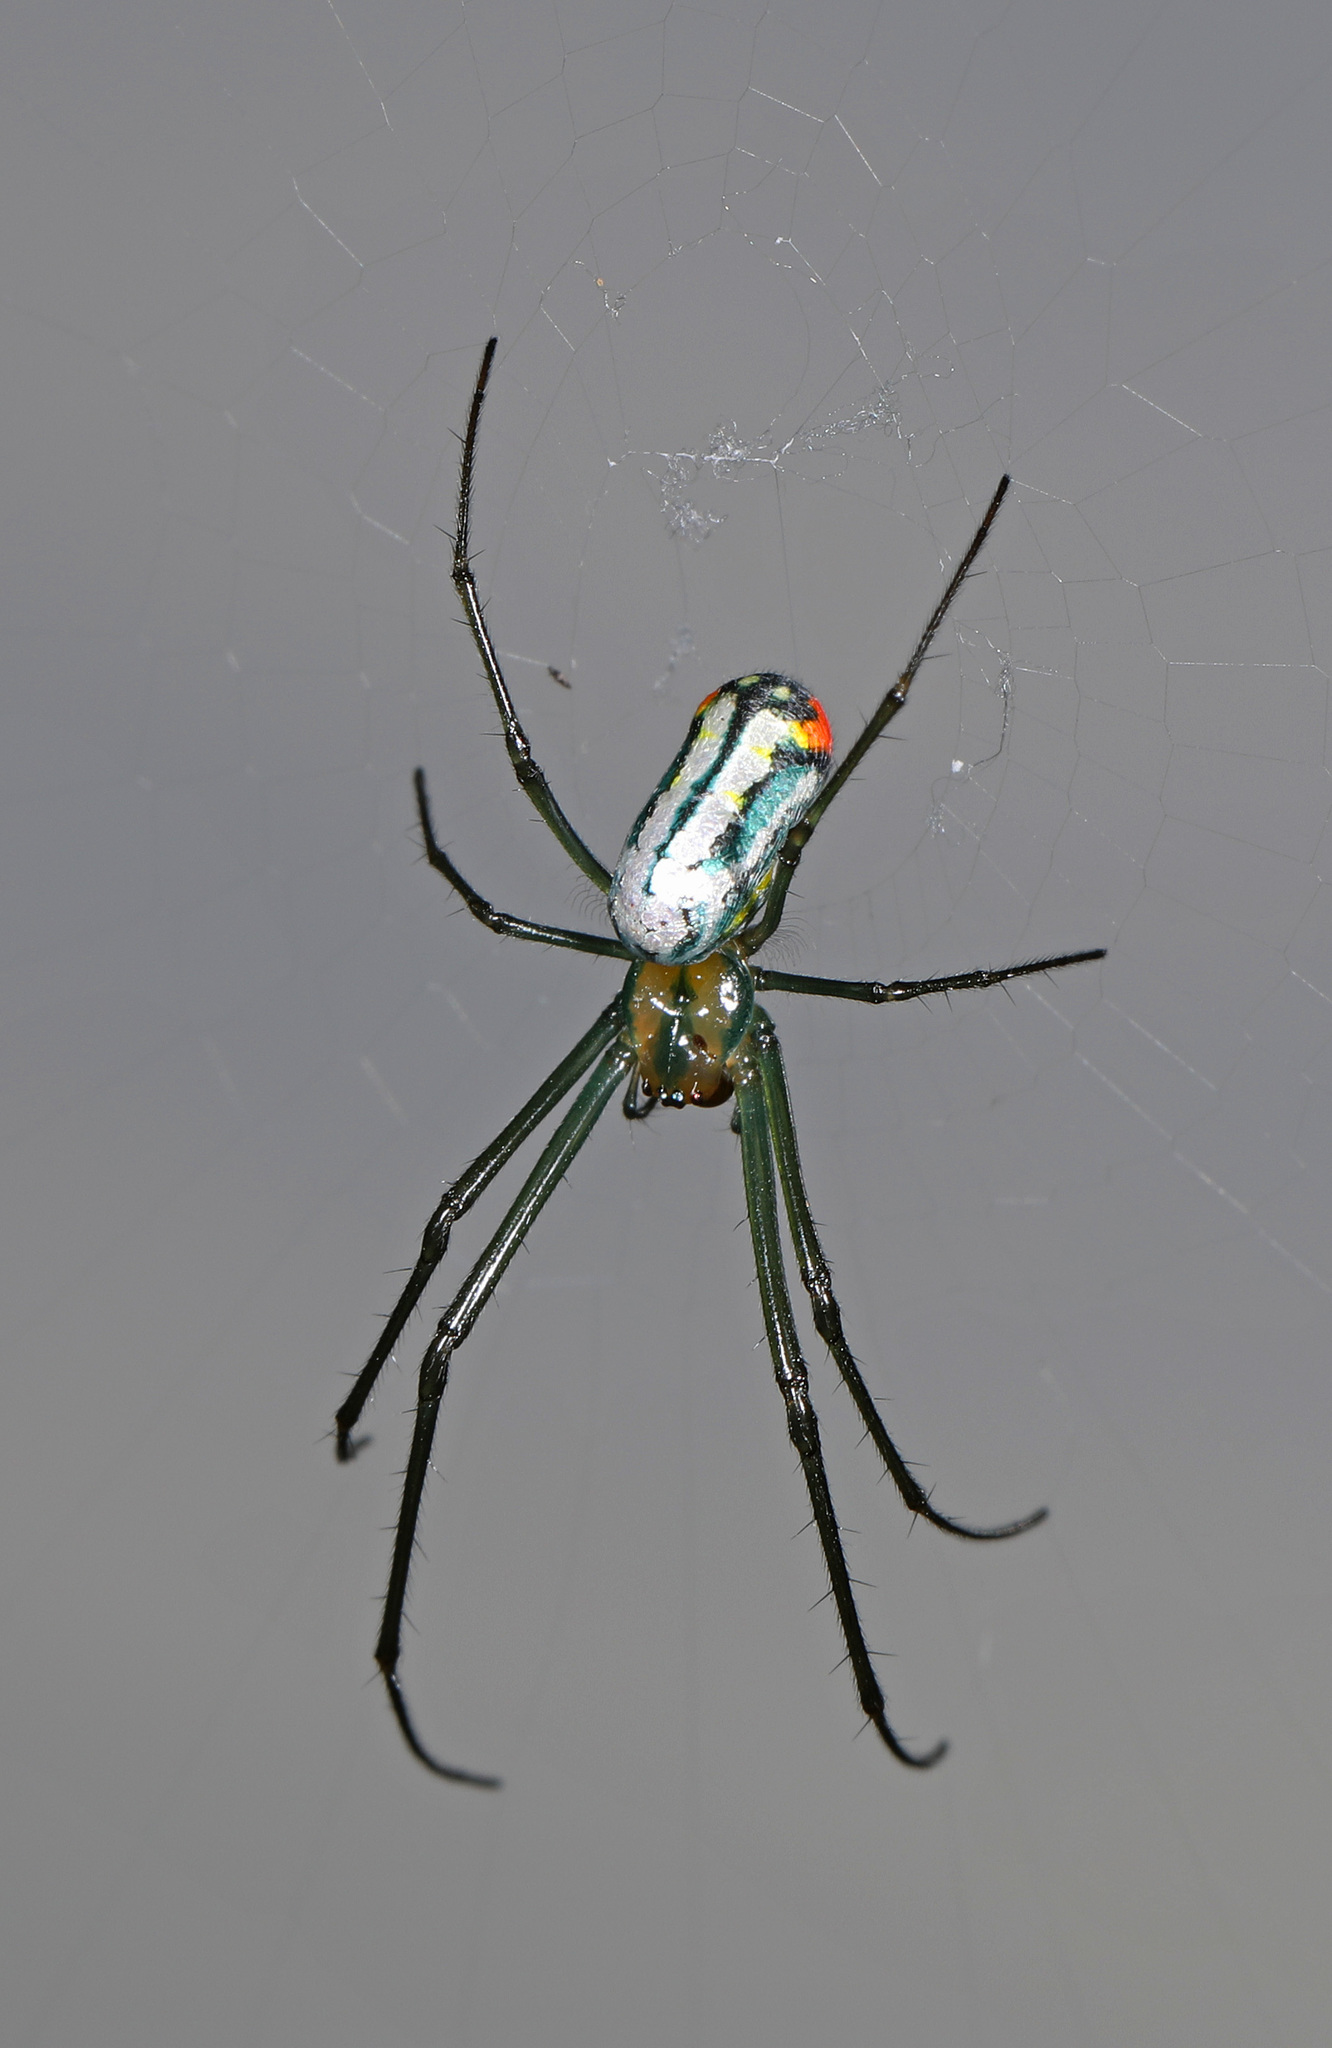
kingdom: Animalia
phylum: Arthropoda
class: Arachnida
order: Araneae
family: Tetragnathidae
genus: Leucauge
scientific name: Leucauge argyrobapta
